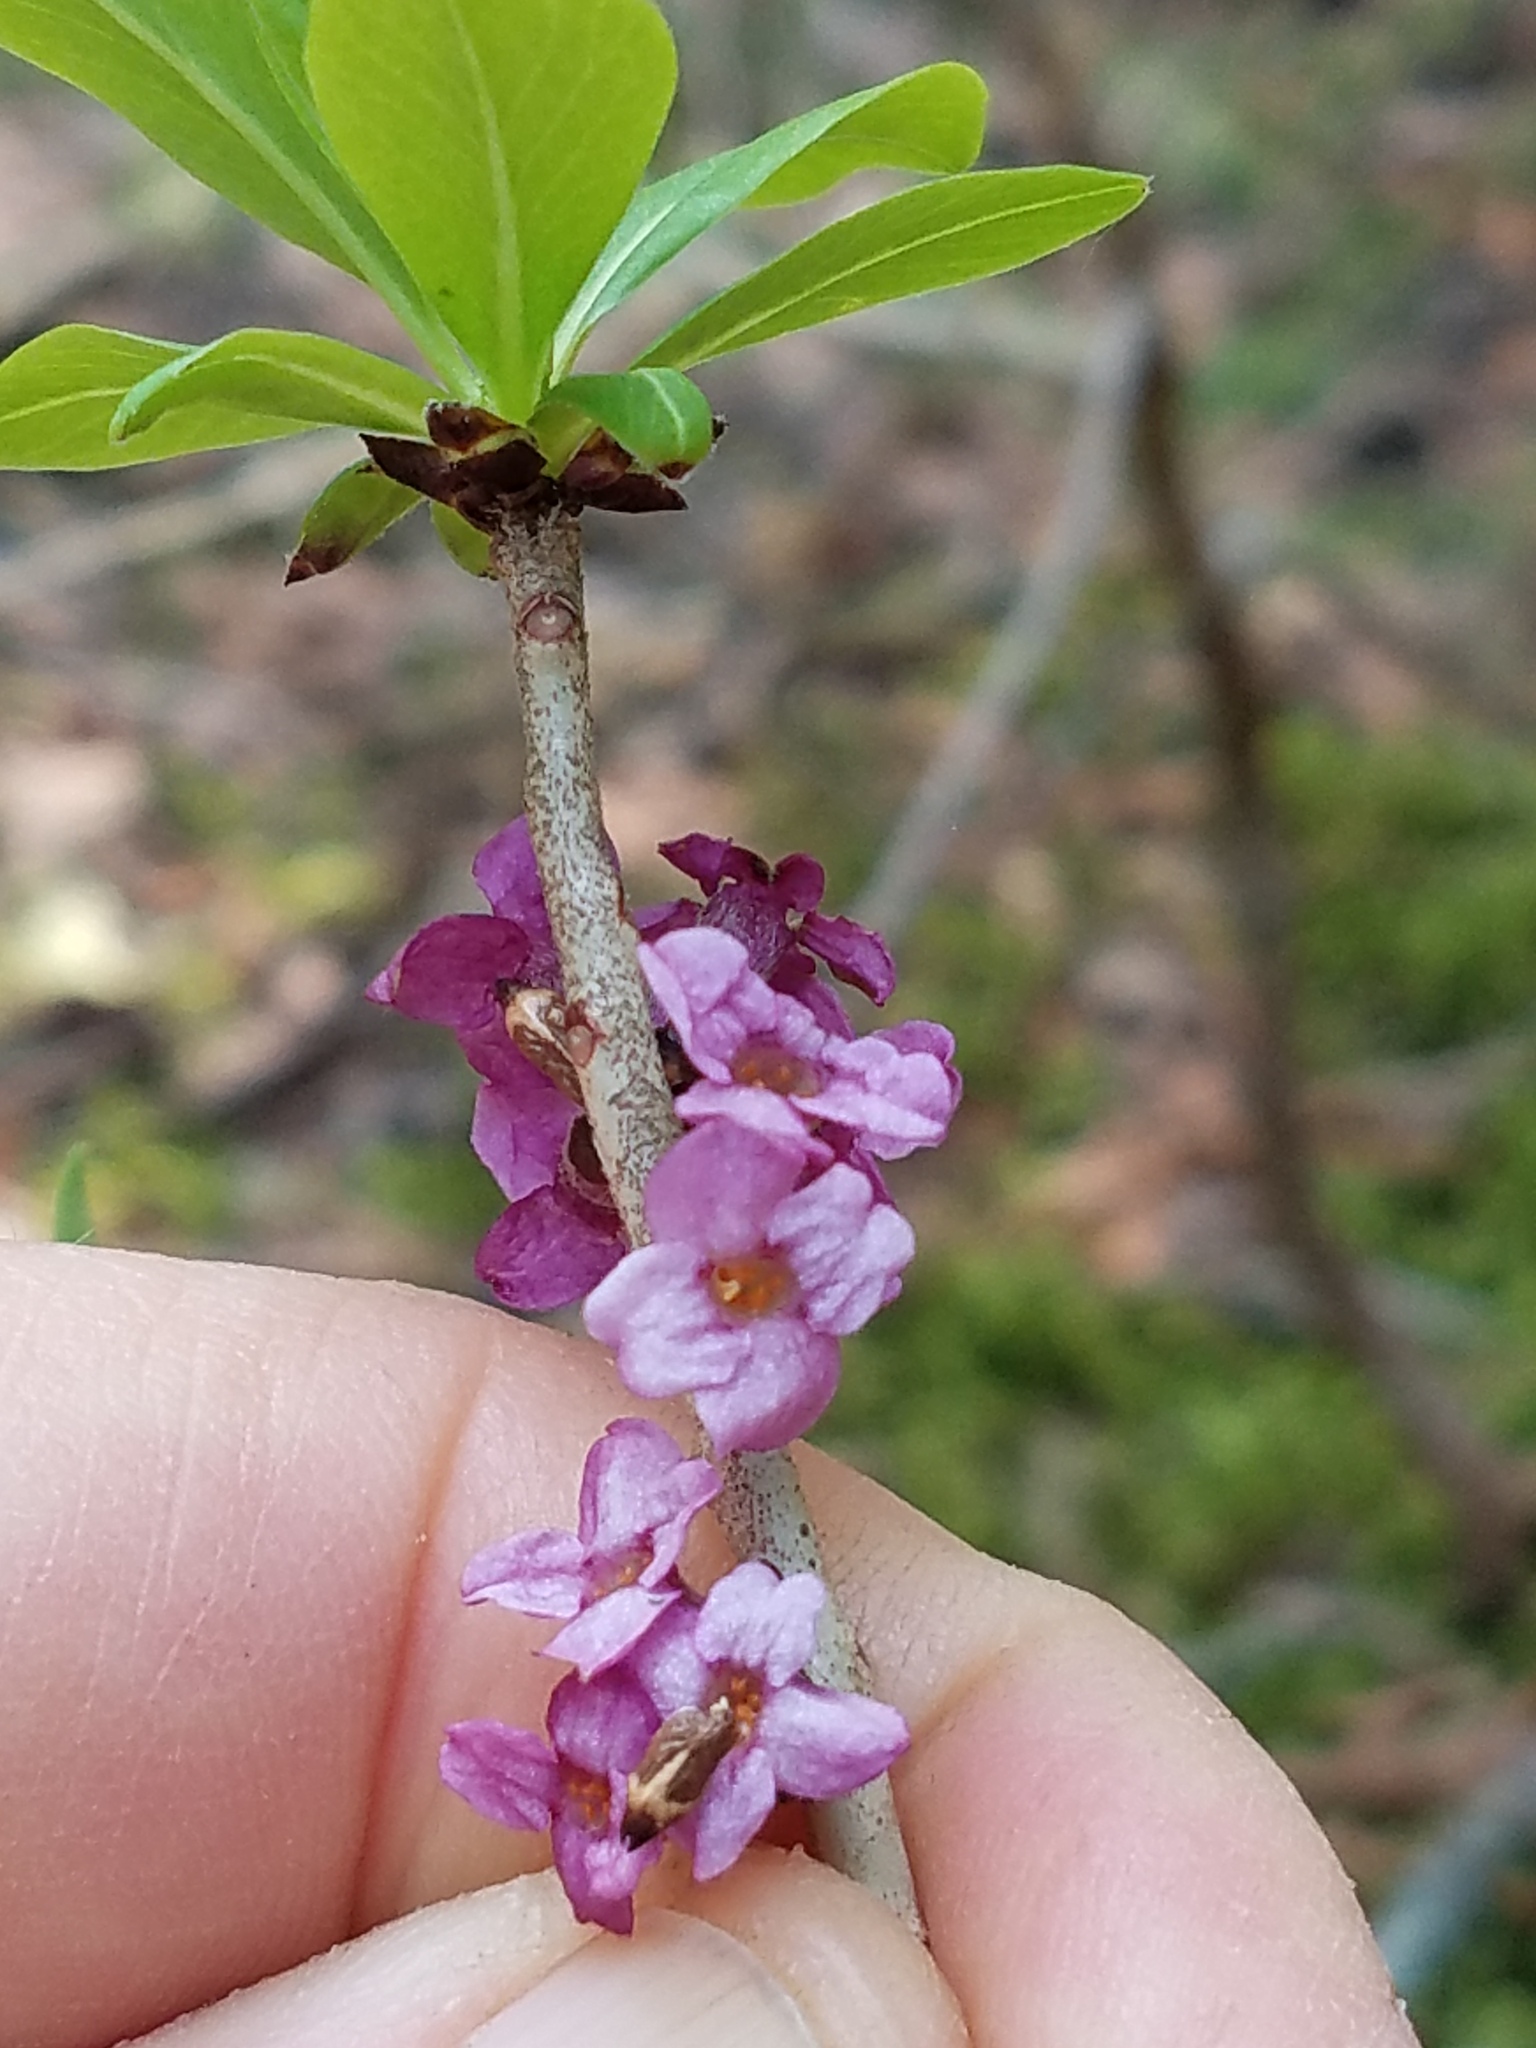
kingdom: Plantae
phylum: Tracheophyta
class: Magnoliopsida
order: Malvales
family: Thymelaeaceae
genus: Daphne
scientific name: Daphne mezereum
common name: Mezereon
